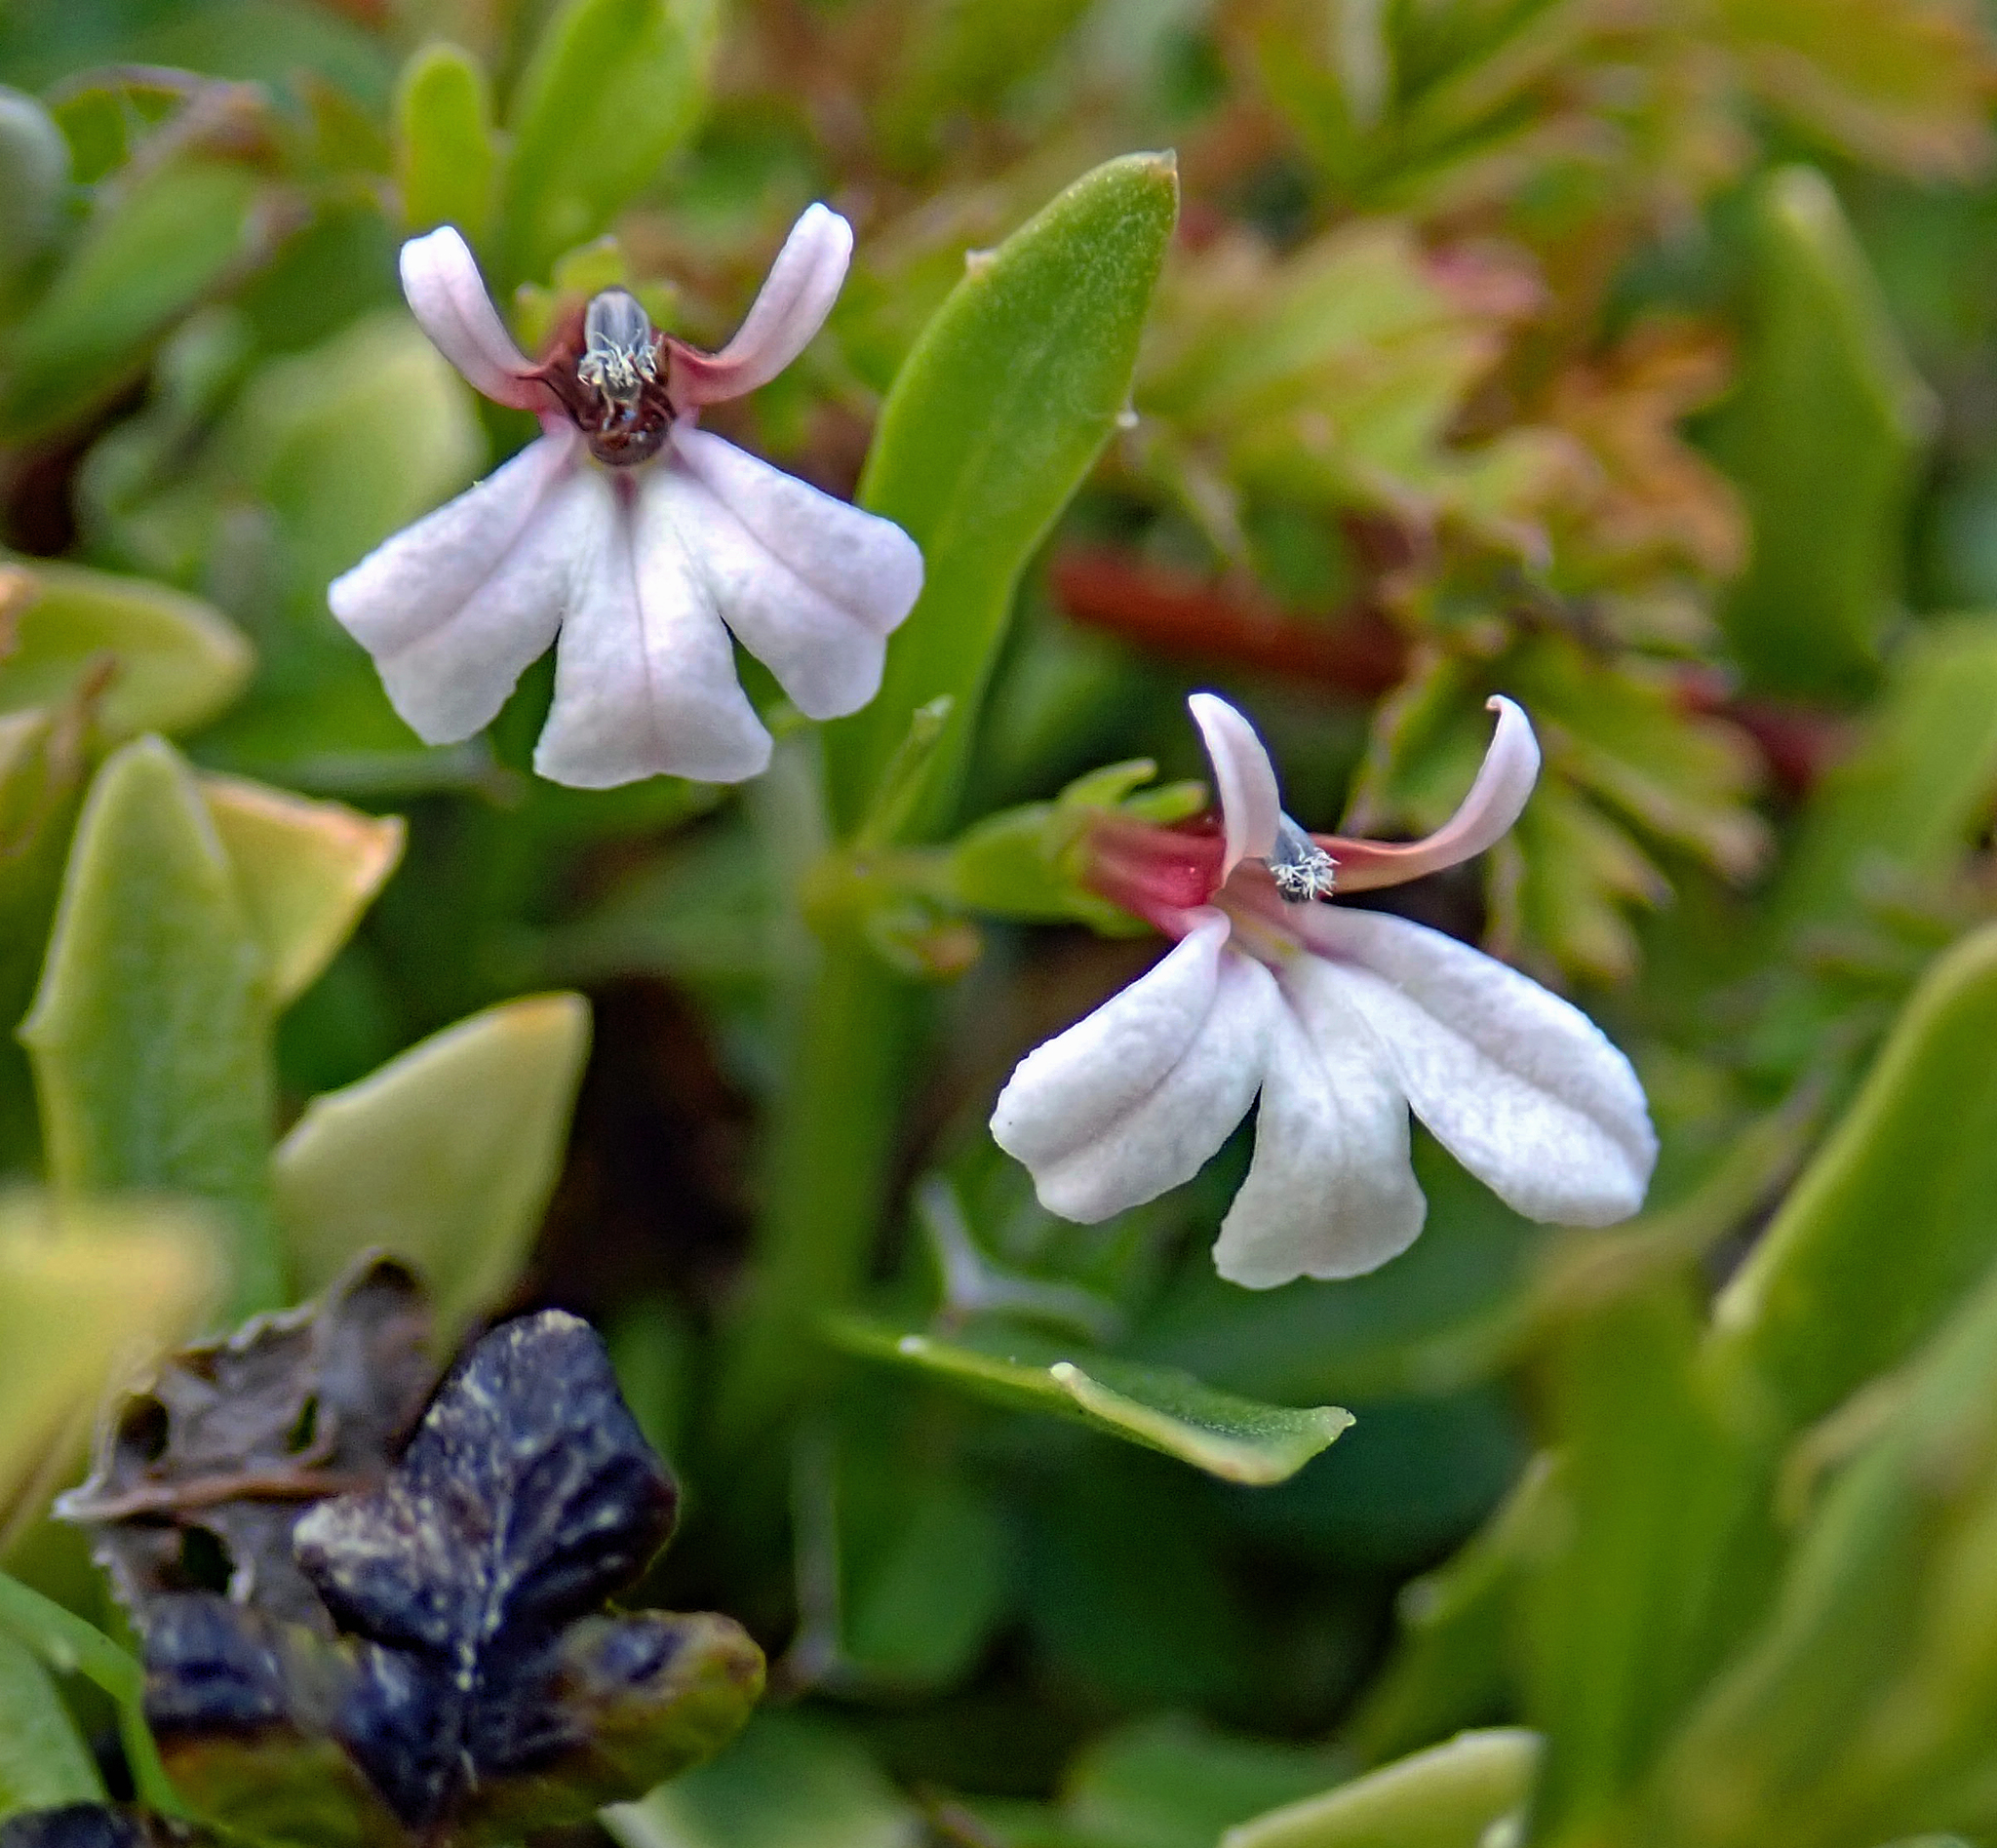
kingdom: Plantae
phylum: Tracheophyta
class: Magnoliopsida
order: Asterales
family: Campanulaceae
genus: Lobelia
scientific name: Lobelia anceps
